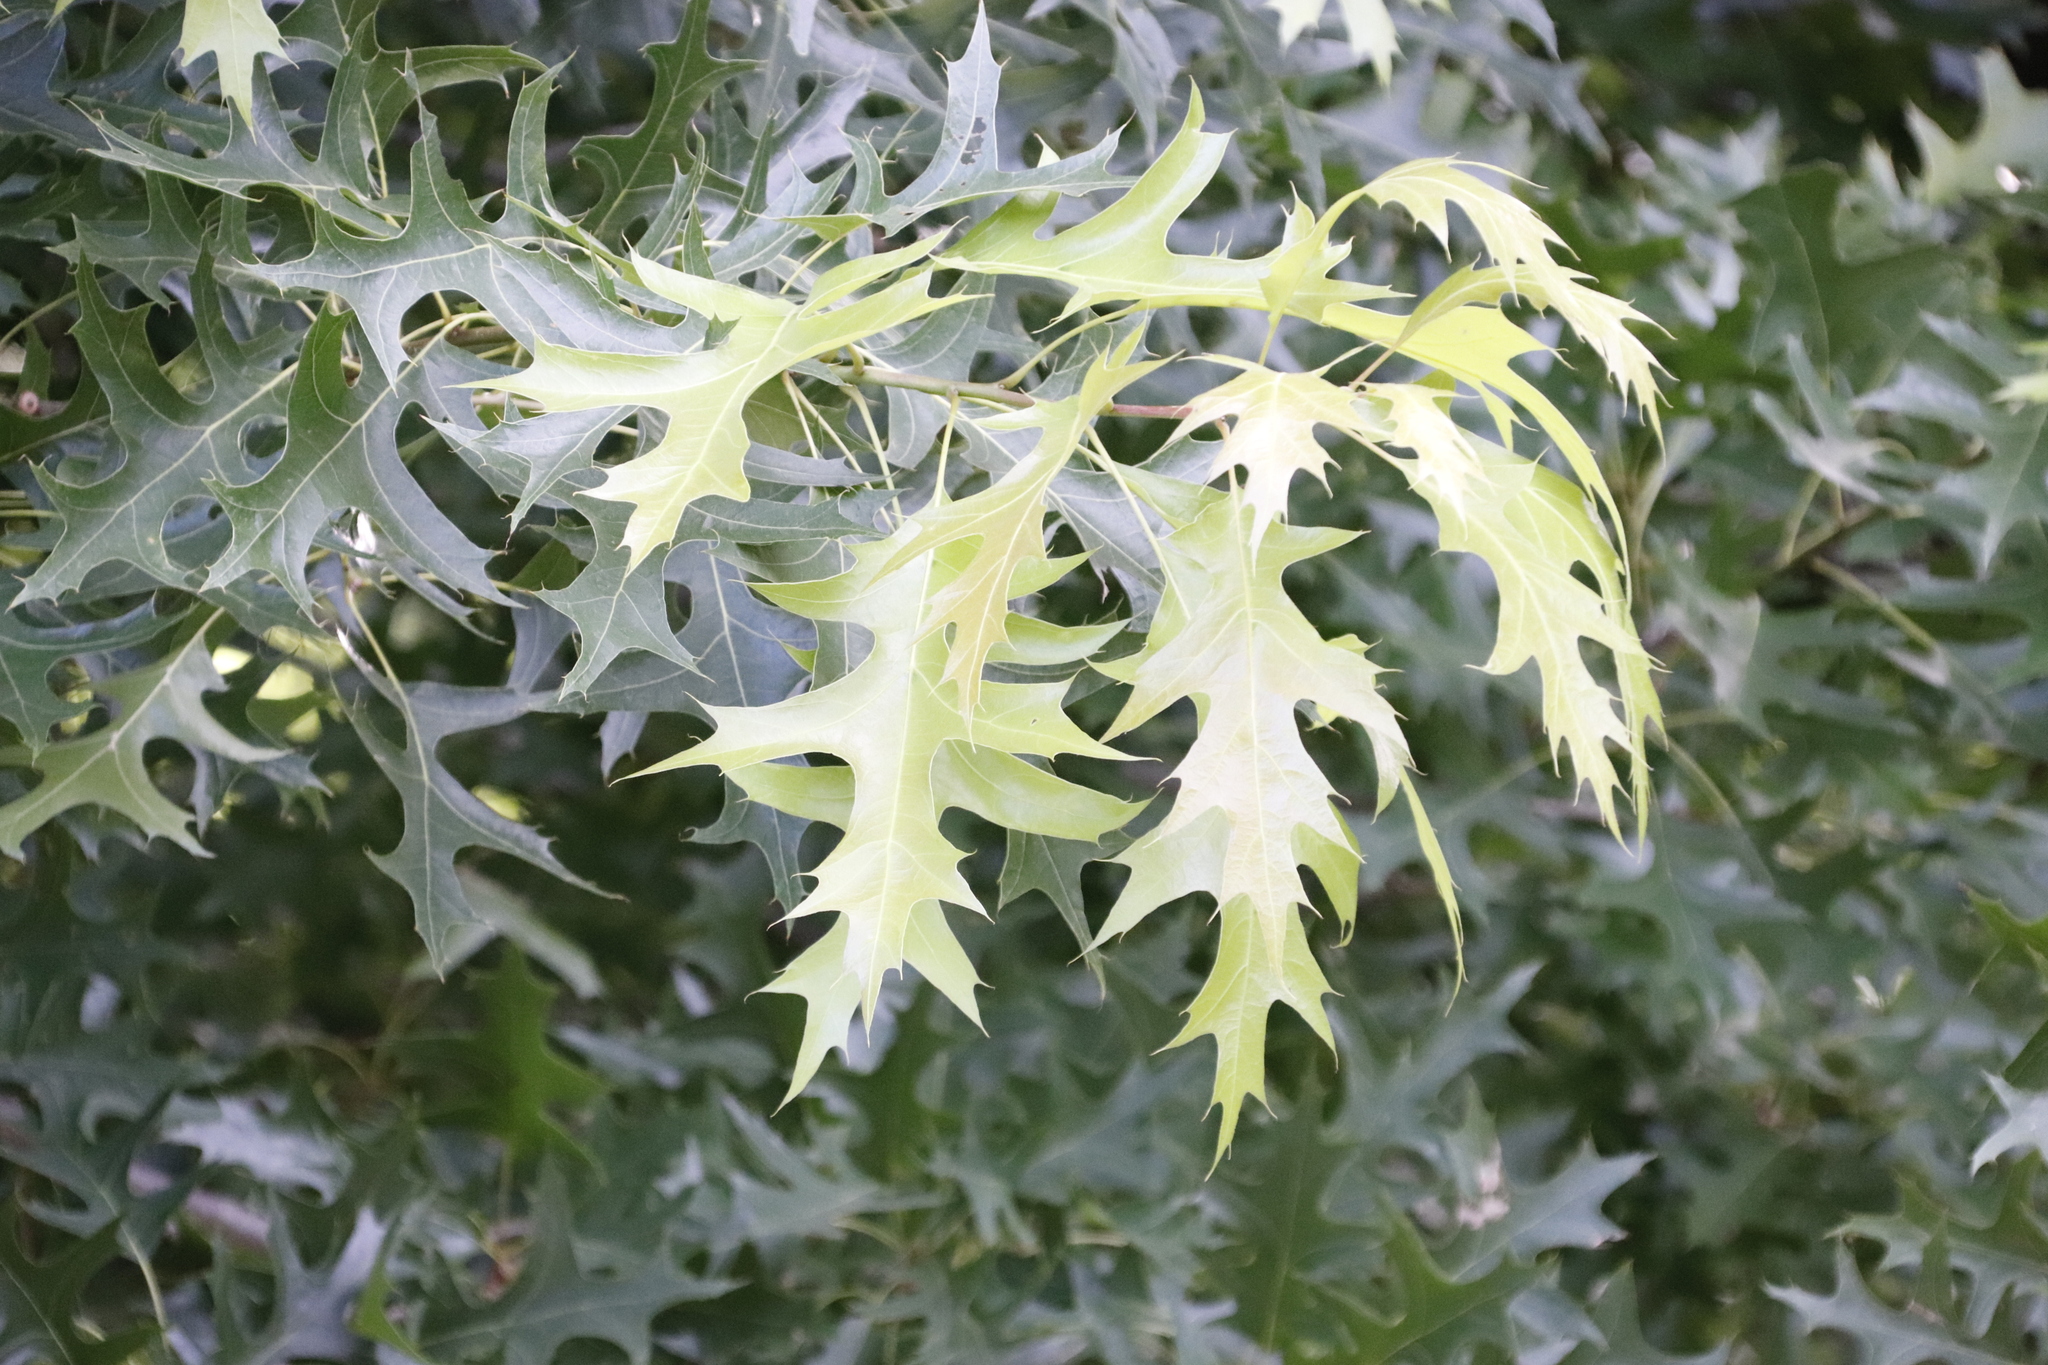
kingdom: Plantae
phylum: Tracheophyta
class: Magnoliopsida
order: Fagales
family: Fagaceae
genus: Quercus
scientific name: Quercus palustris
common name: Pin oak
